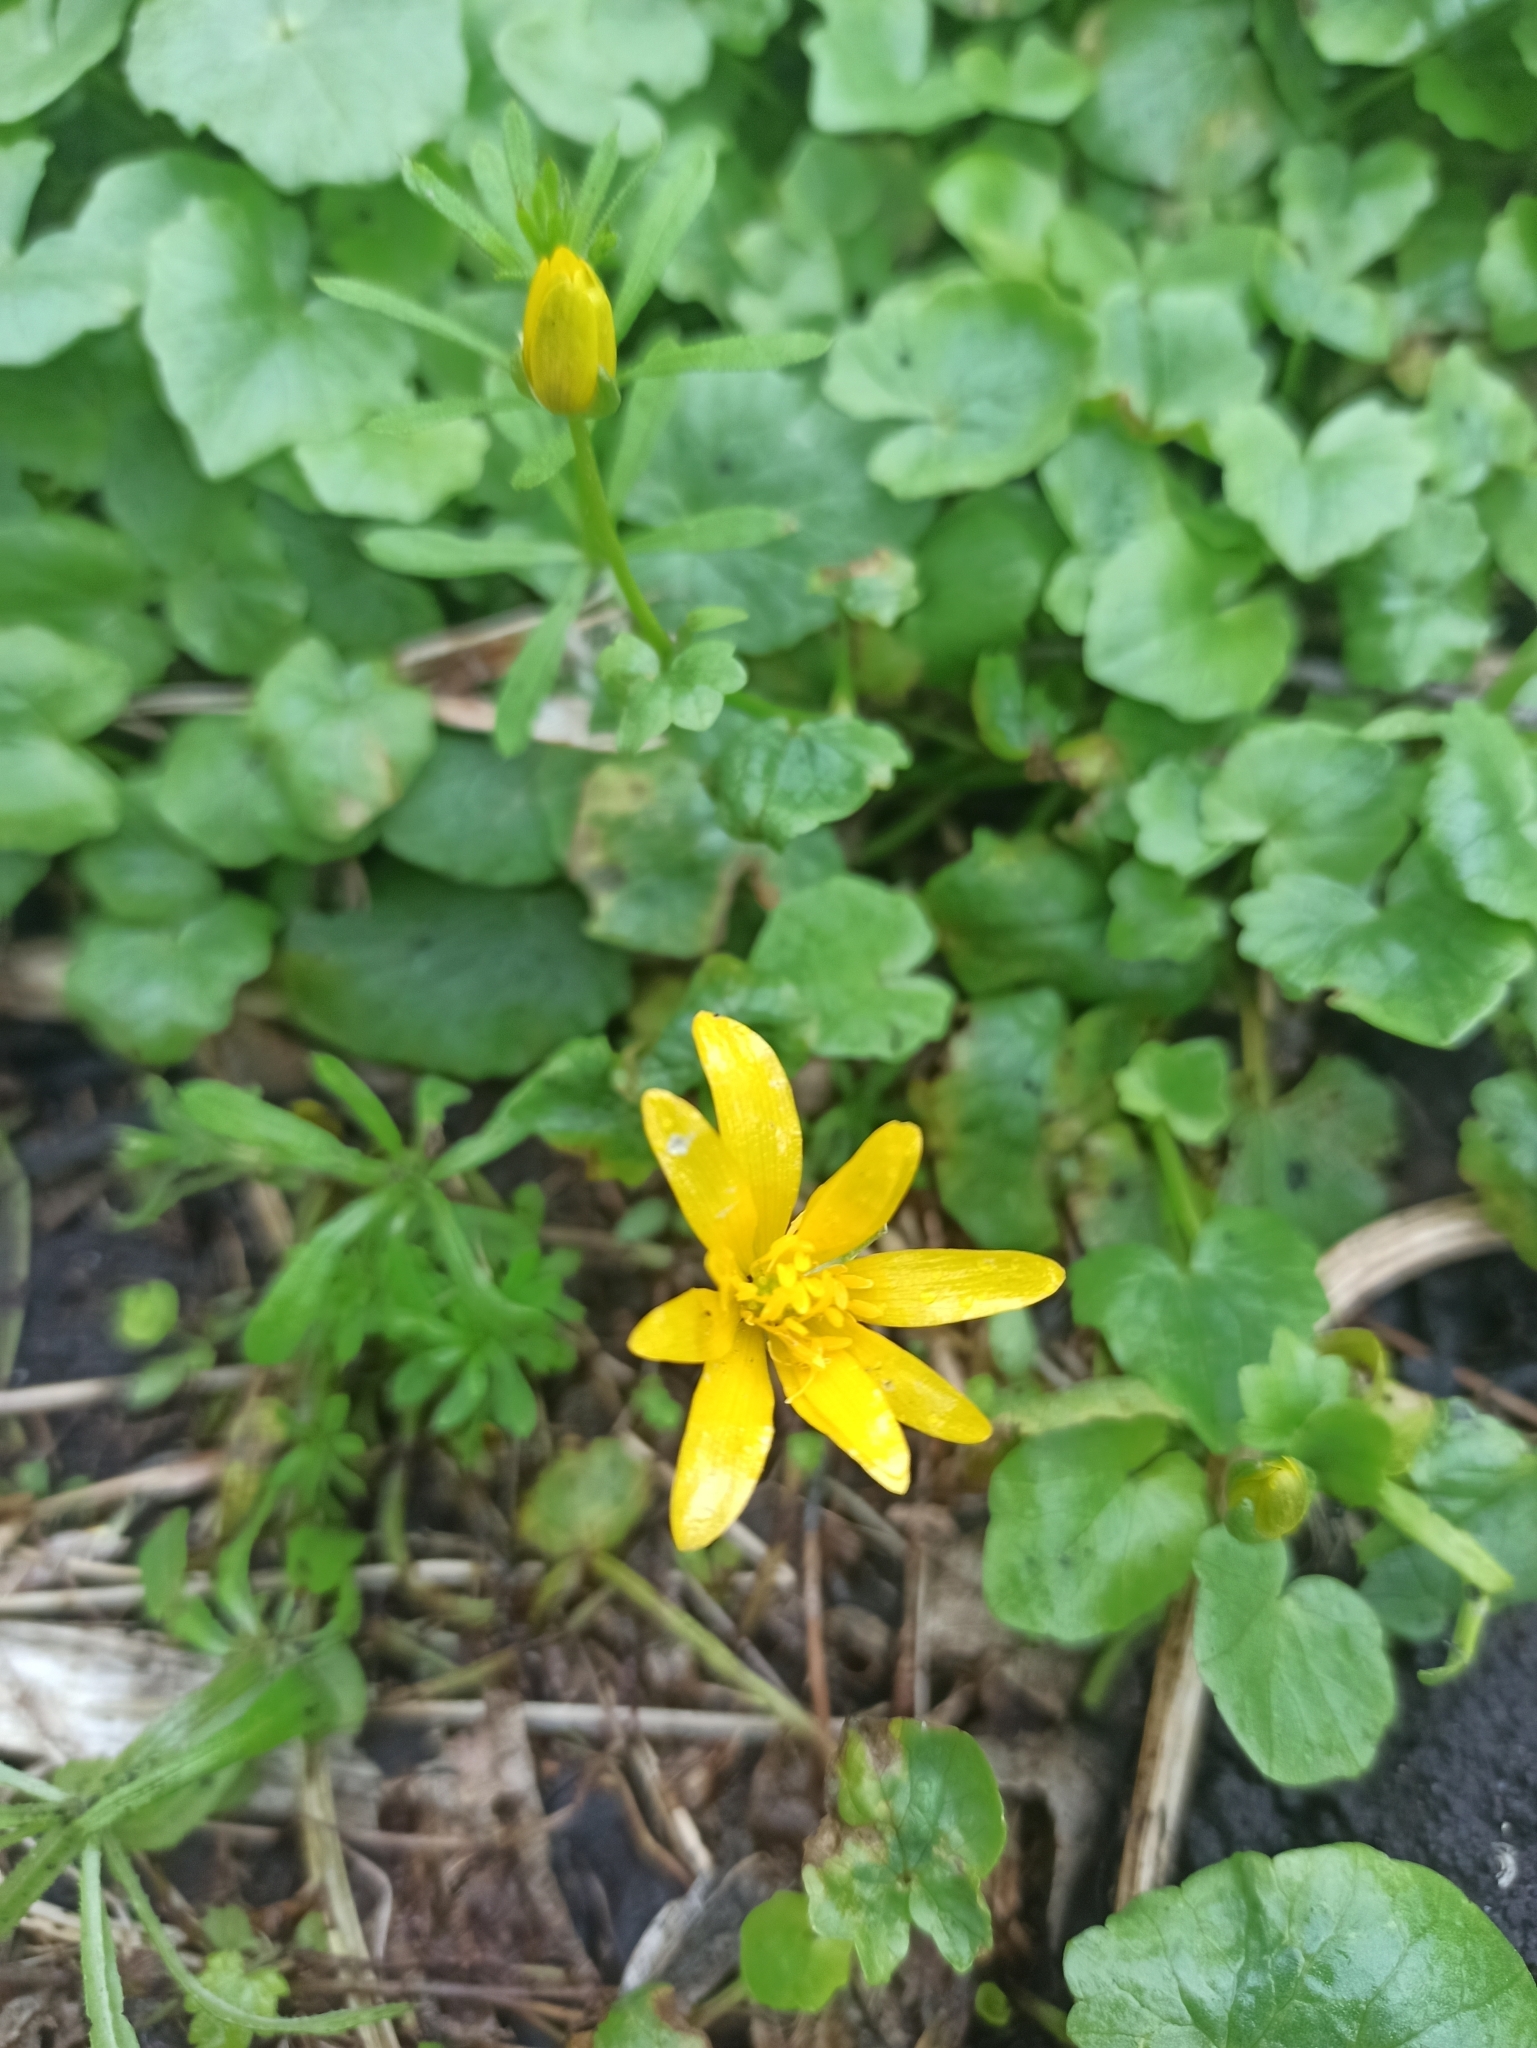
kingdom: Plantae
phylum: Tracheophyta
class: Magnoliopsida
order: Ranunculales
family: Ranunculaceae
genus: Ficaria
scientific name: Ficaria verna
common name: Lesser celandine
